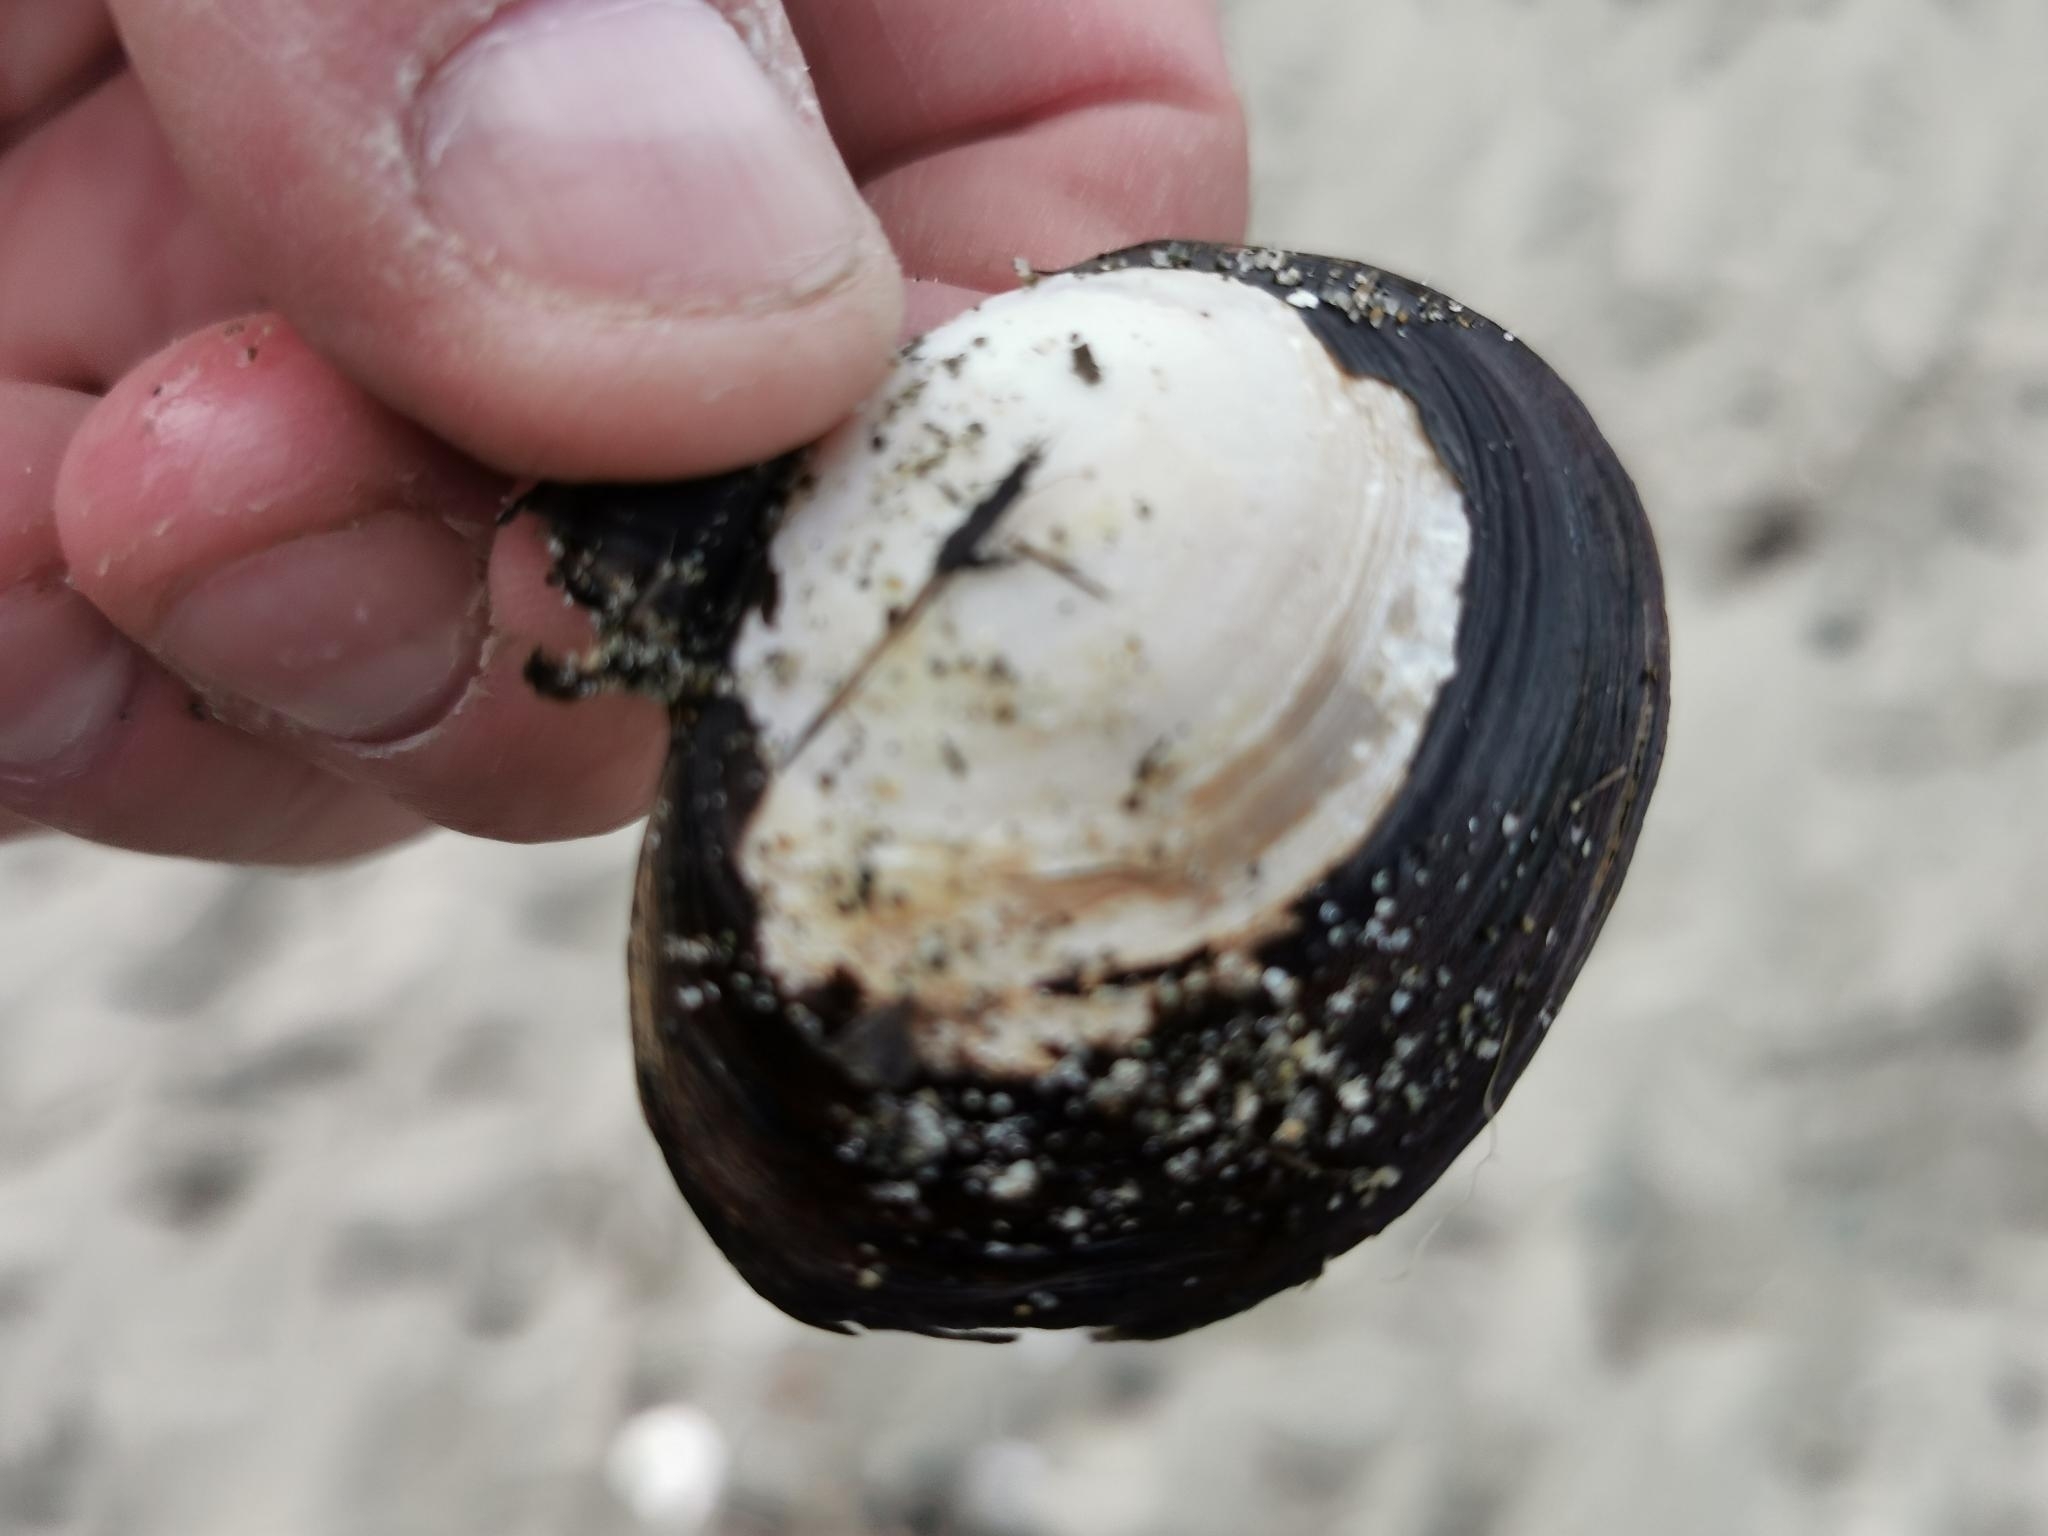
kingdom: Animalia
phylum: Mollusca
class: Bivalvia
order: Cardiida
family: Psammobiidae
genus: Nuttallia
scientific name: Nuttallia obscurata
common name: Purple mahogany-clam
